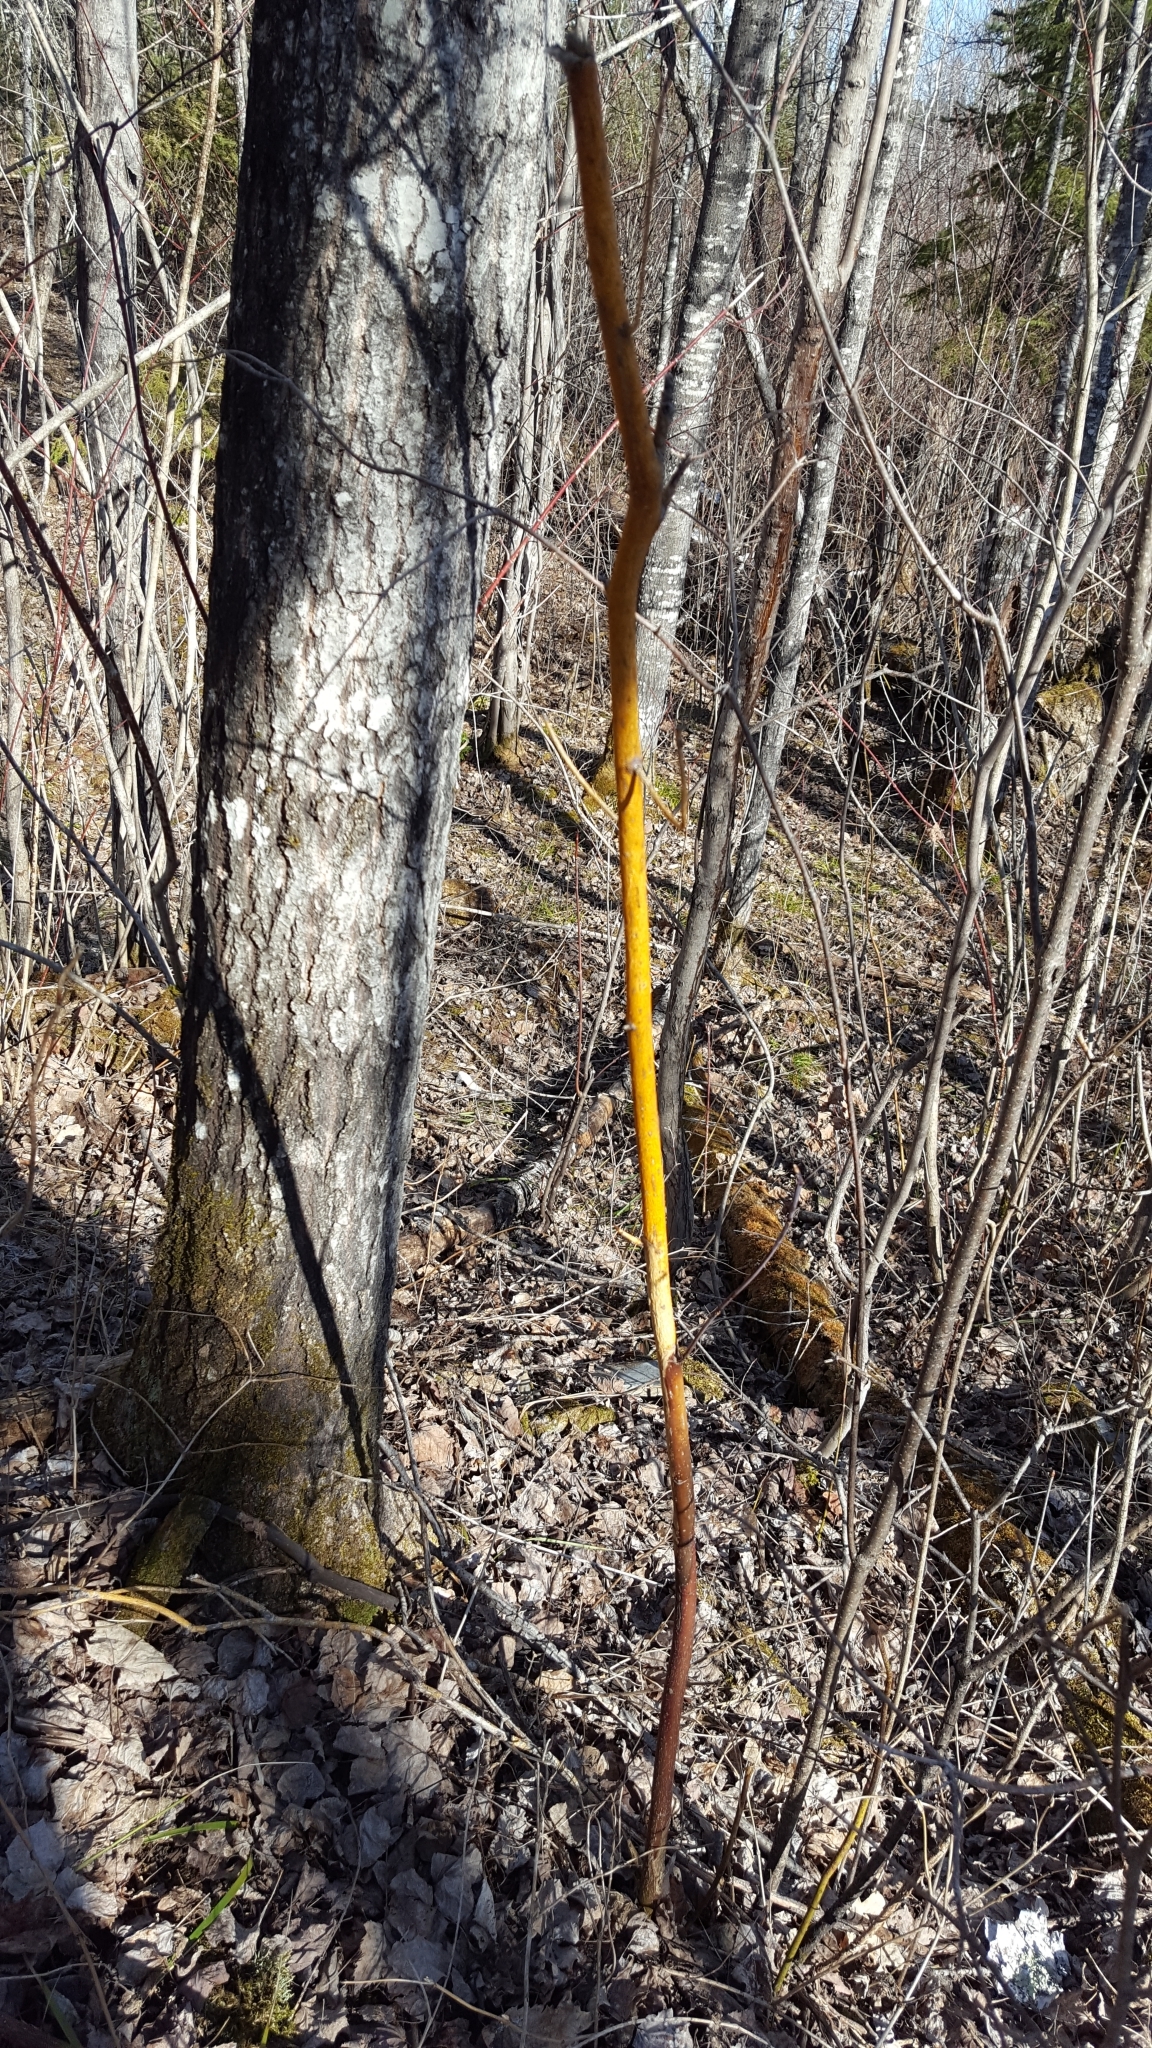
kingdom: Fungi
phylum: Ascomycota
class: Sordariomycetes
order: Diaporthales
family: Cryphonectriaceae
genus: Aurantioporthe
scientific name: Aurantioporthe corni
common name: Dogwood golden canker
